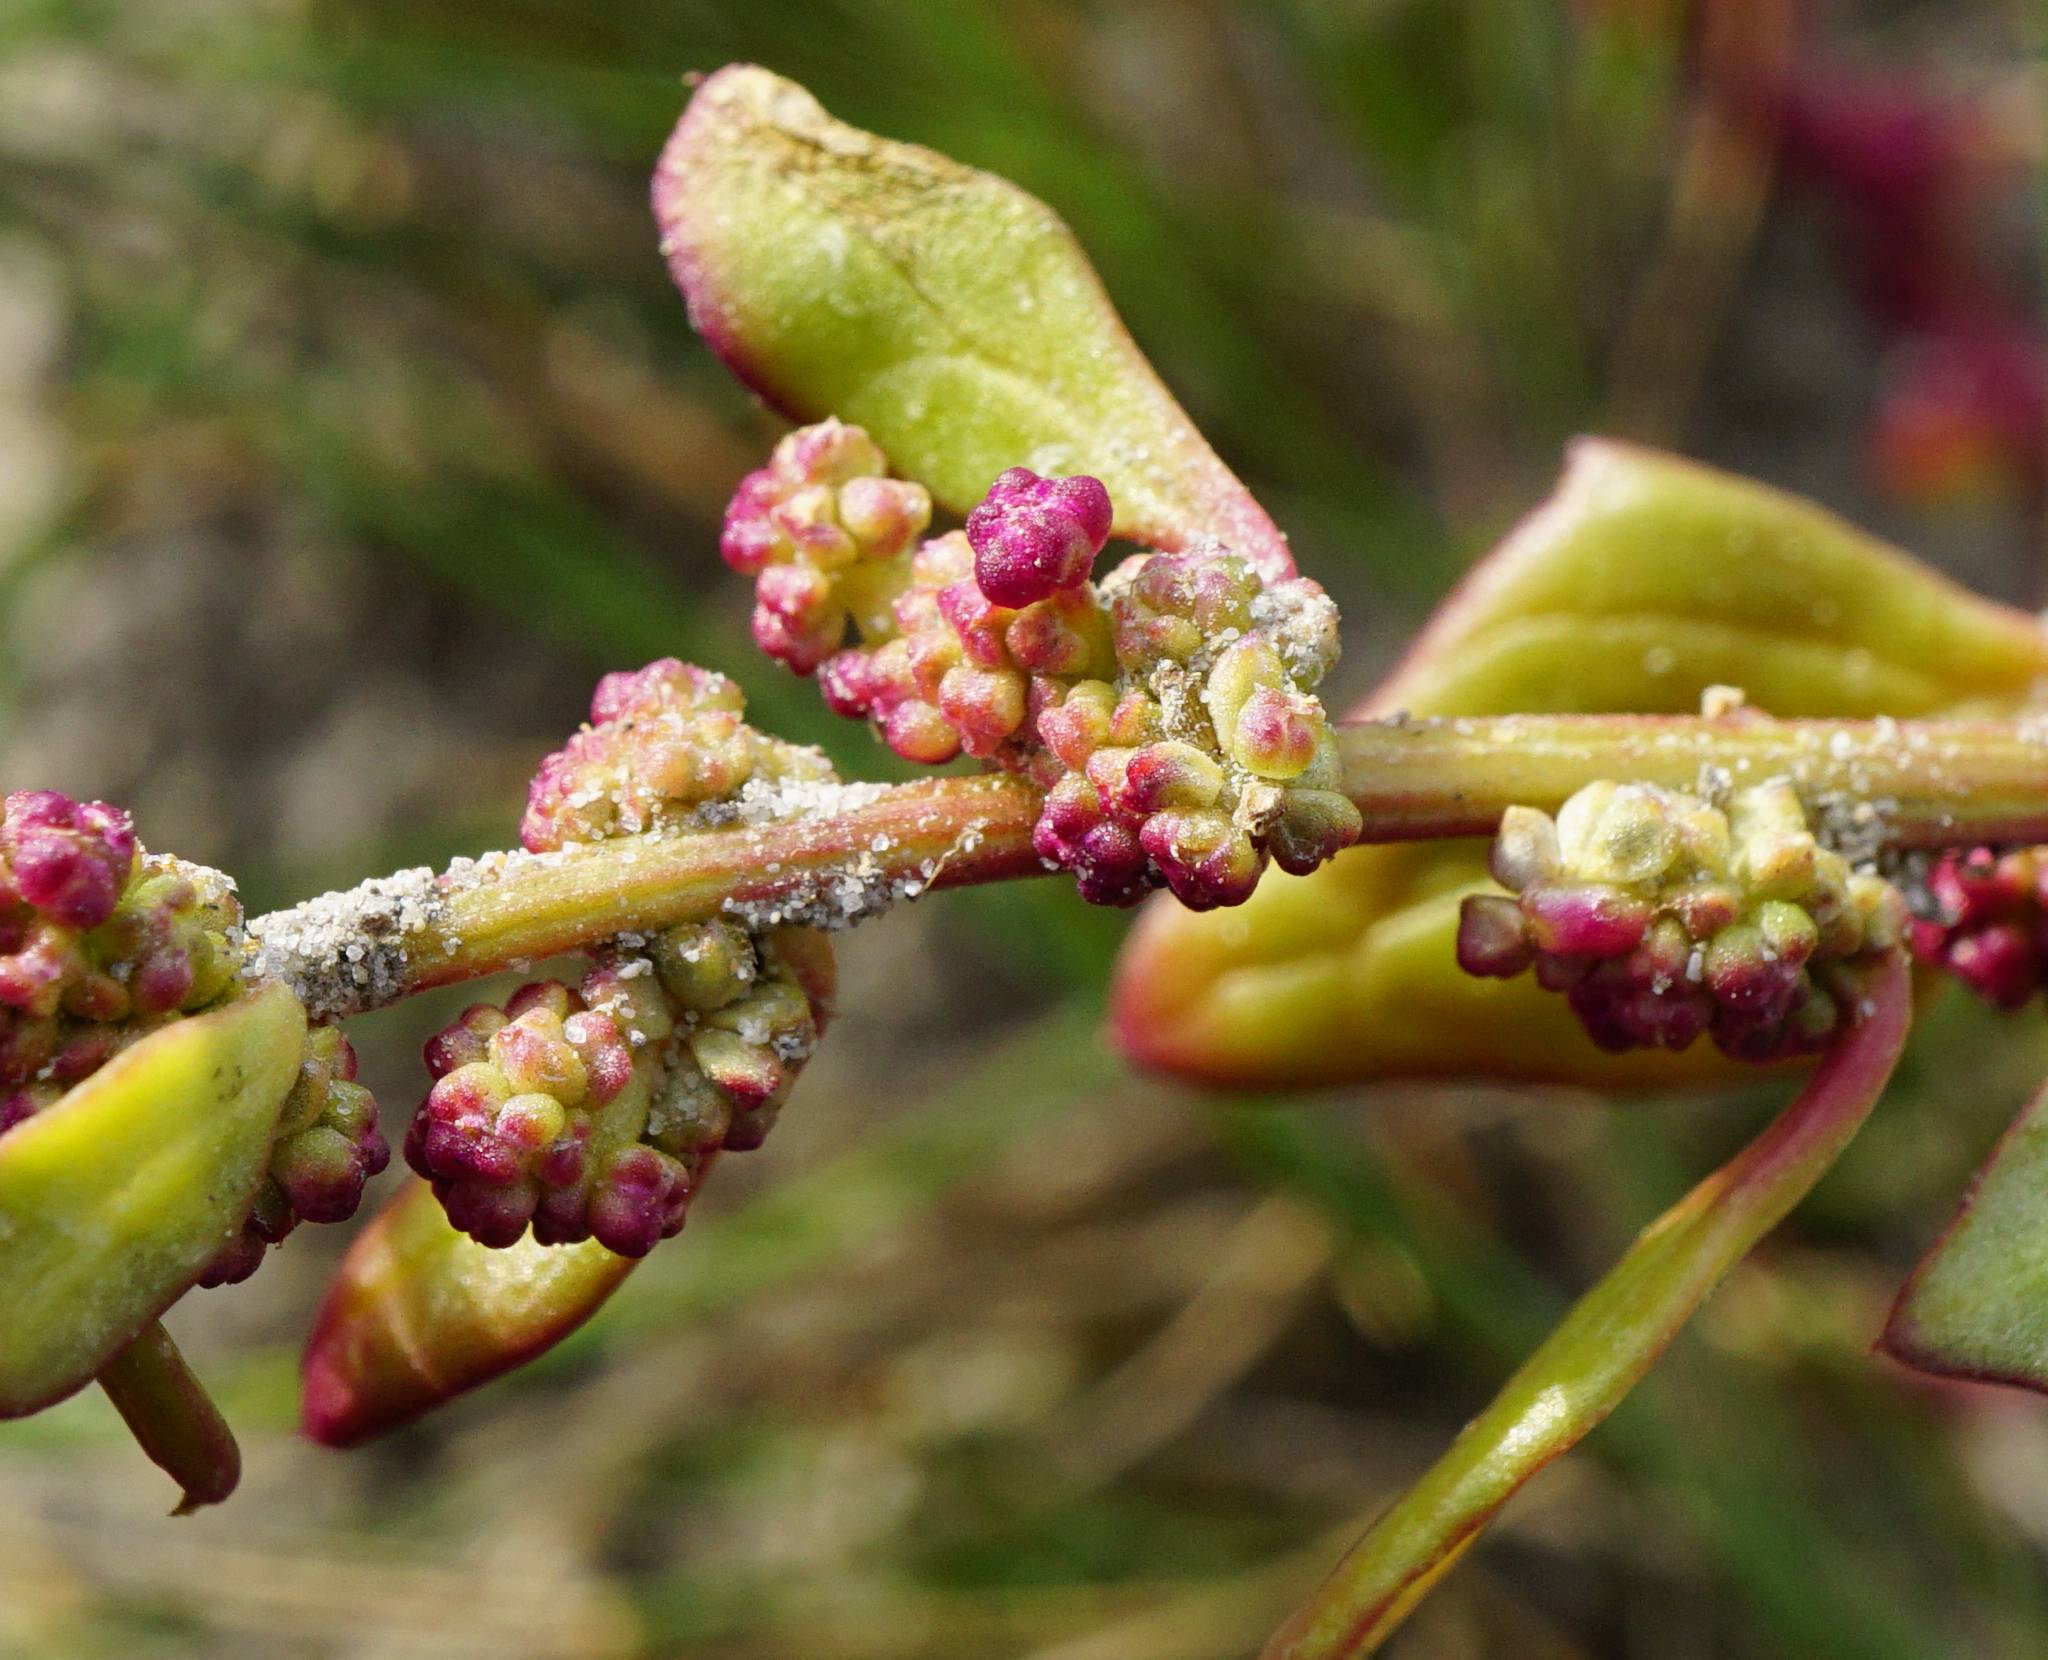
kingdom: Plantae
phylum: Tracheophyta
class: Magnoliopsida
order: Caryophyllales
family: Amaranthaceae
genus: Oxybasis
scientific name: Oxybasis chenopodioides
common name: Saltmarsh goosefoot
